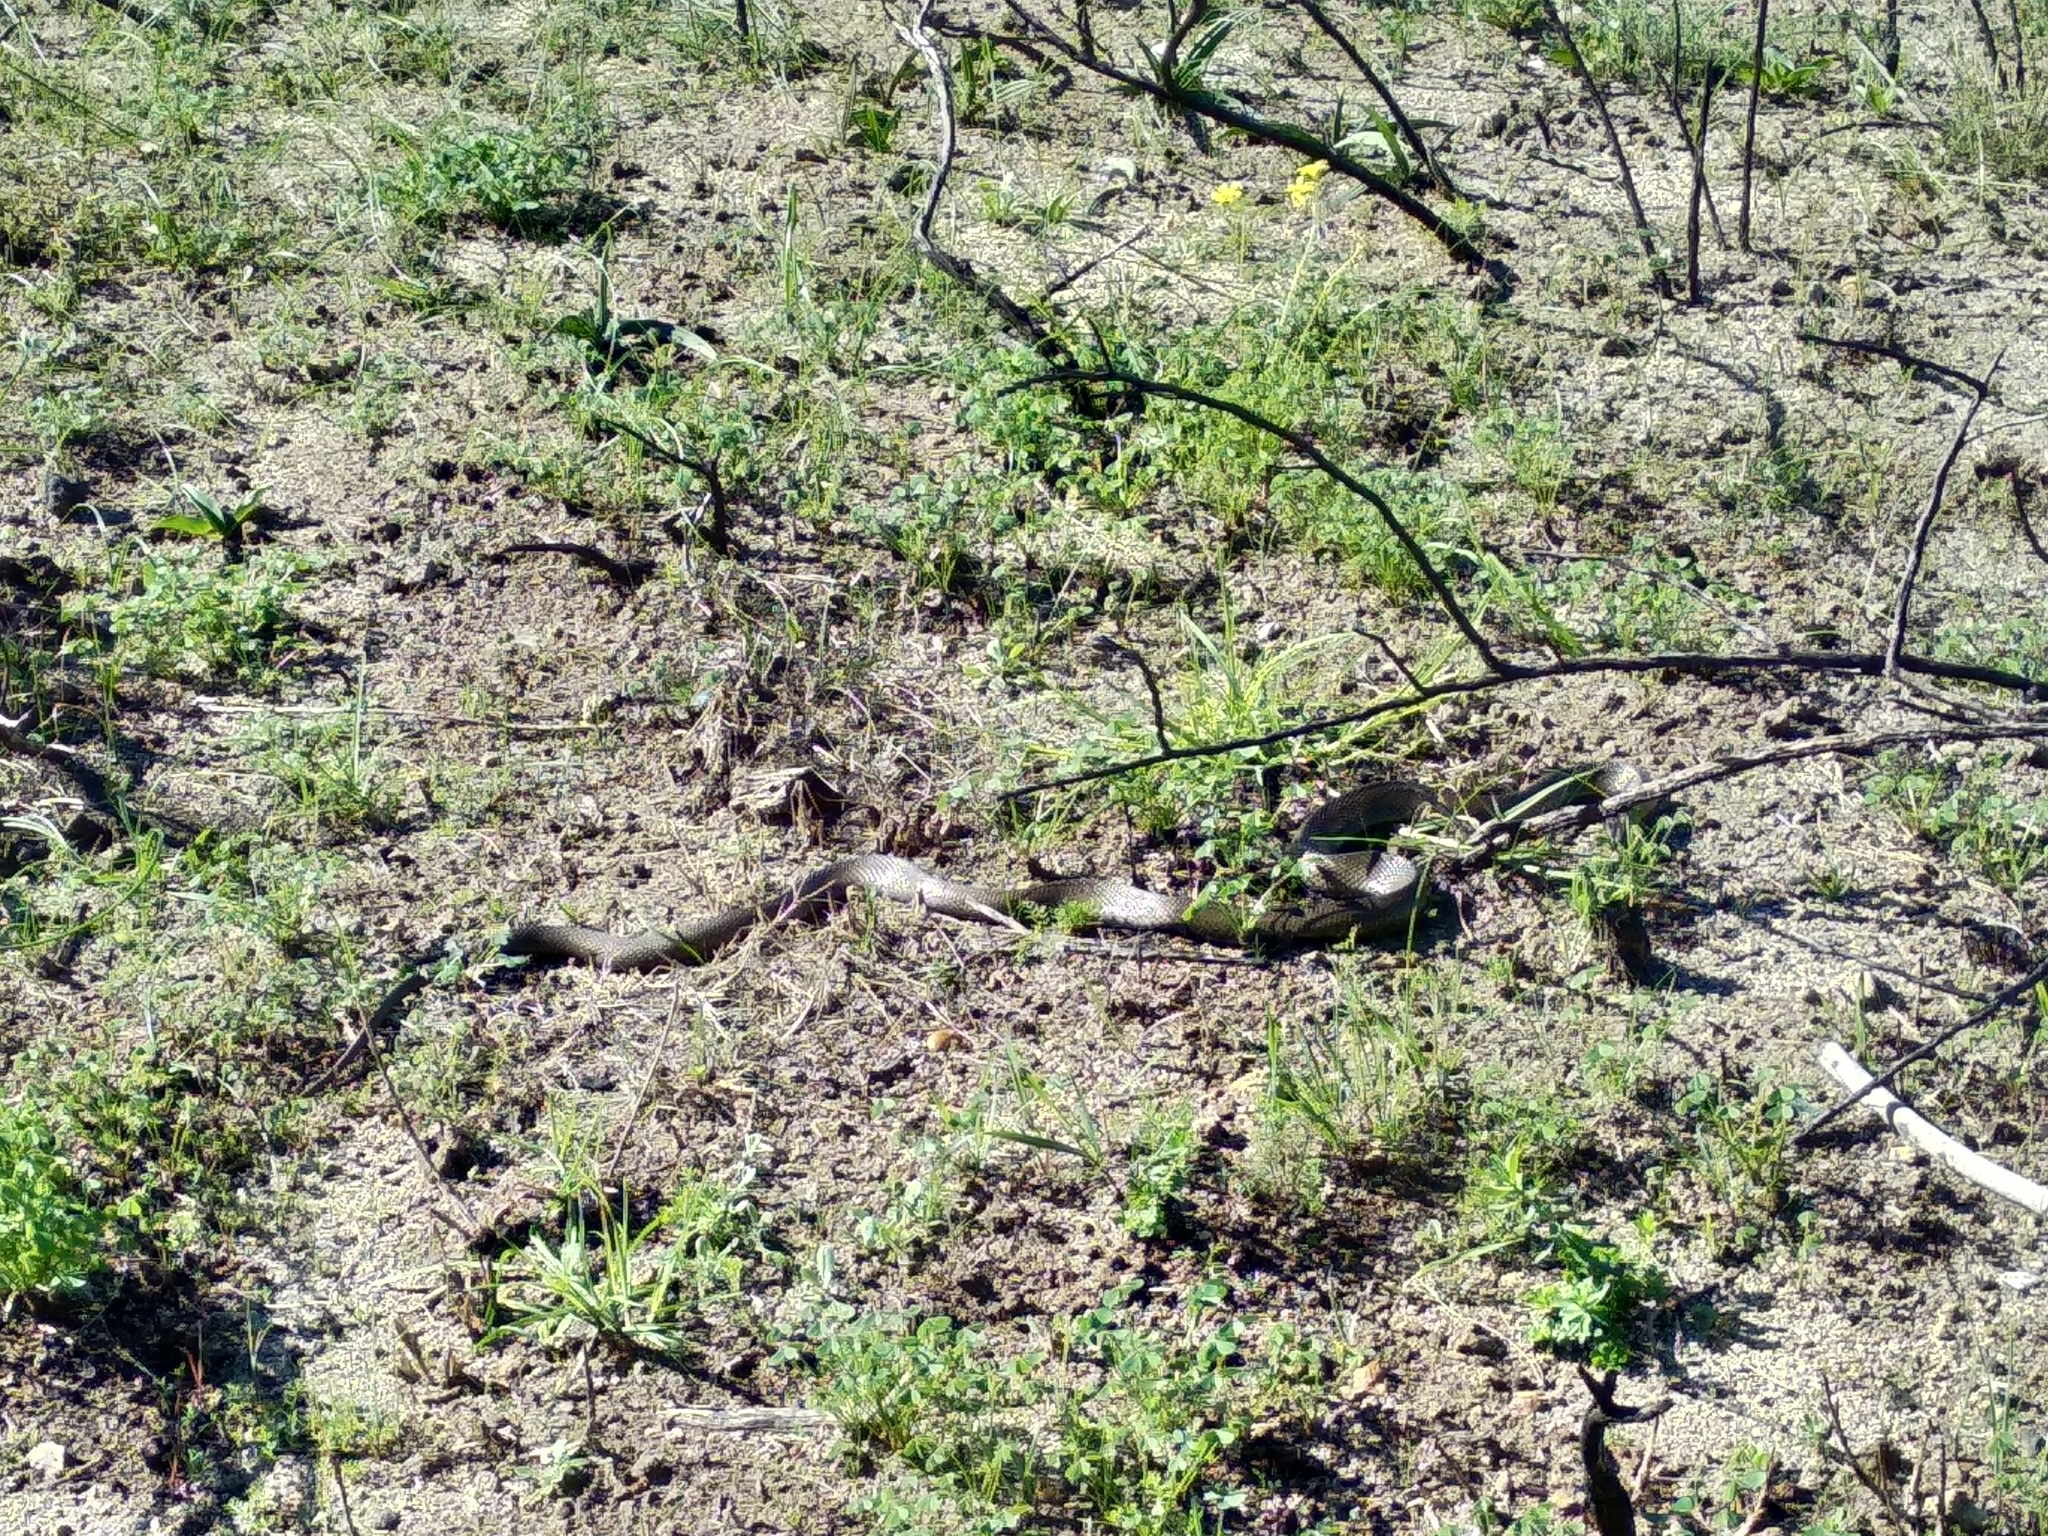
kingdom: Animalia
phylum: Chordata
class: Squamata
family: Pseudaspididae
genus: Pseudaspis
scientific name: Pseudaspis cana
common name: Mole snake
